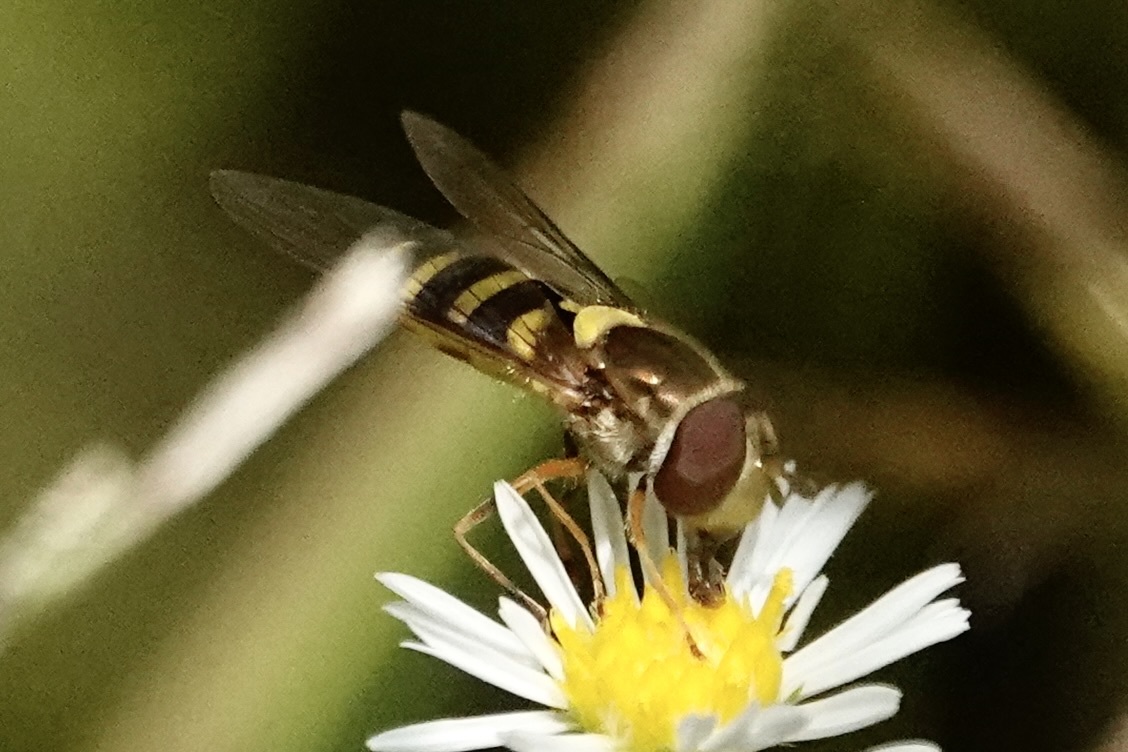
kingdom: Animalia
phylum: Arthropoda
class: Insecta
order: Diptera
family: Syrphidae
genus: Syrphus
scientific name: Syrphus rectus
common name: Yellow-legged flower fly
